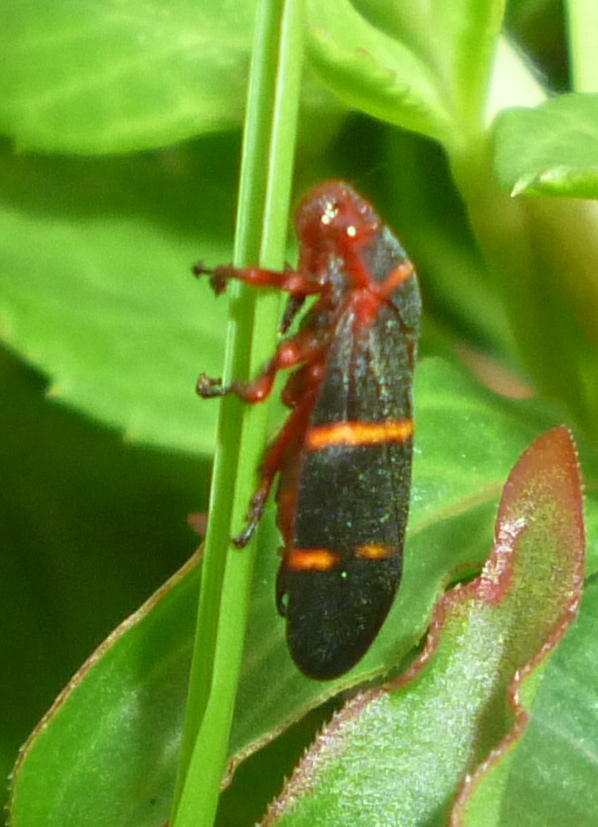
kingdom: Animalia
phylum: Arthropoda
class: Insecta
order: Hemiptera
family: Cercopidae
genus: Prosapia
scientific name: Prosapia bicincta
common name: Twolined spittlebug
